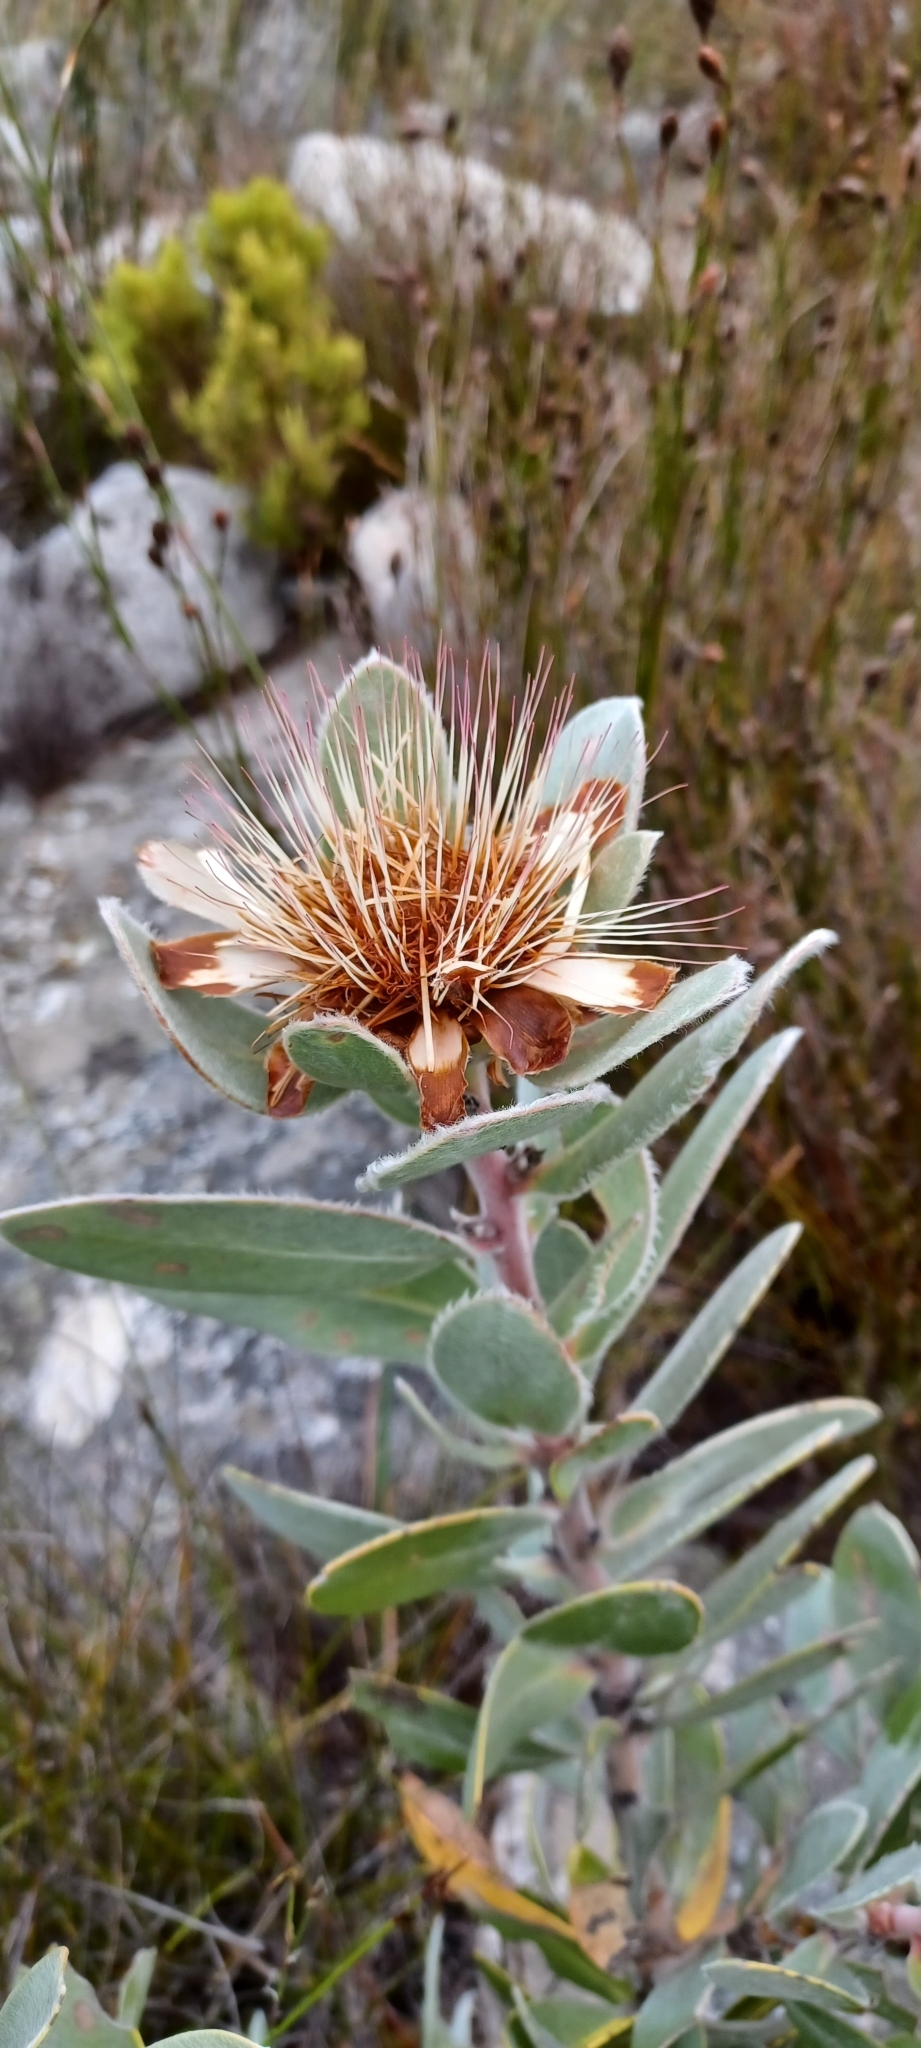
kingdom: Plantae
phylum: Tracheophyta
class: Magnoliopsida
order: Proteales
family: Proteaceae
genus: Protea
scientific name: Protea punctata
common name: Water sugarbush
